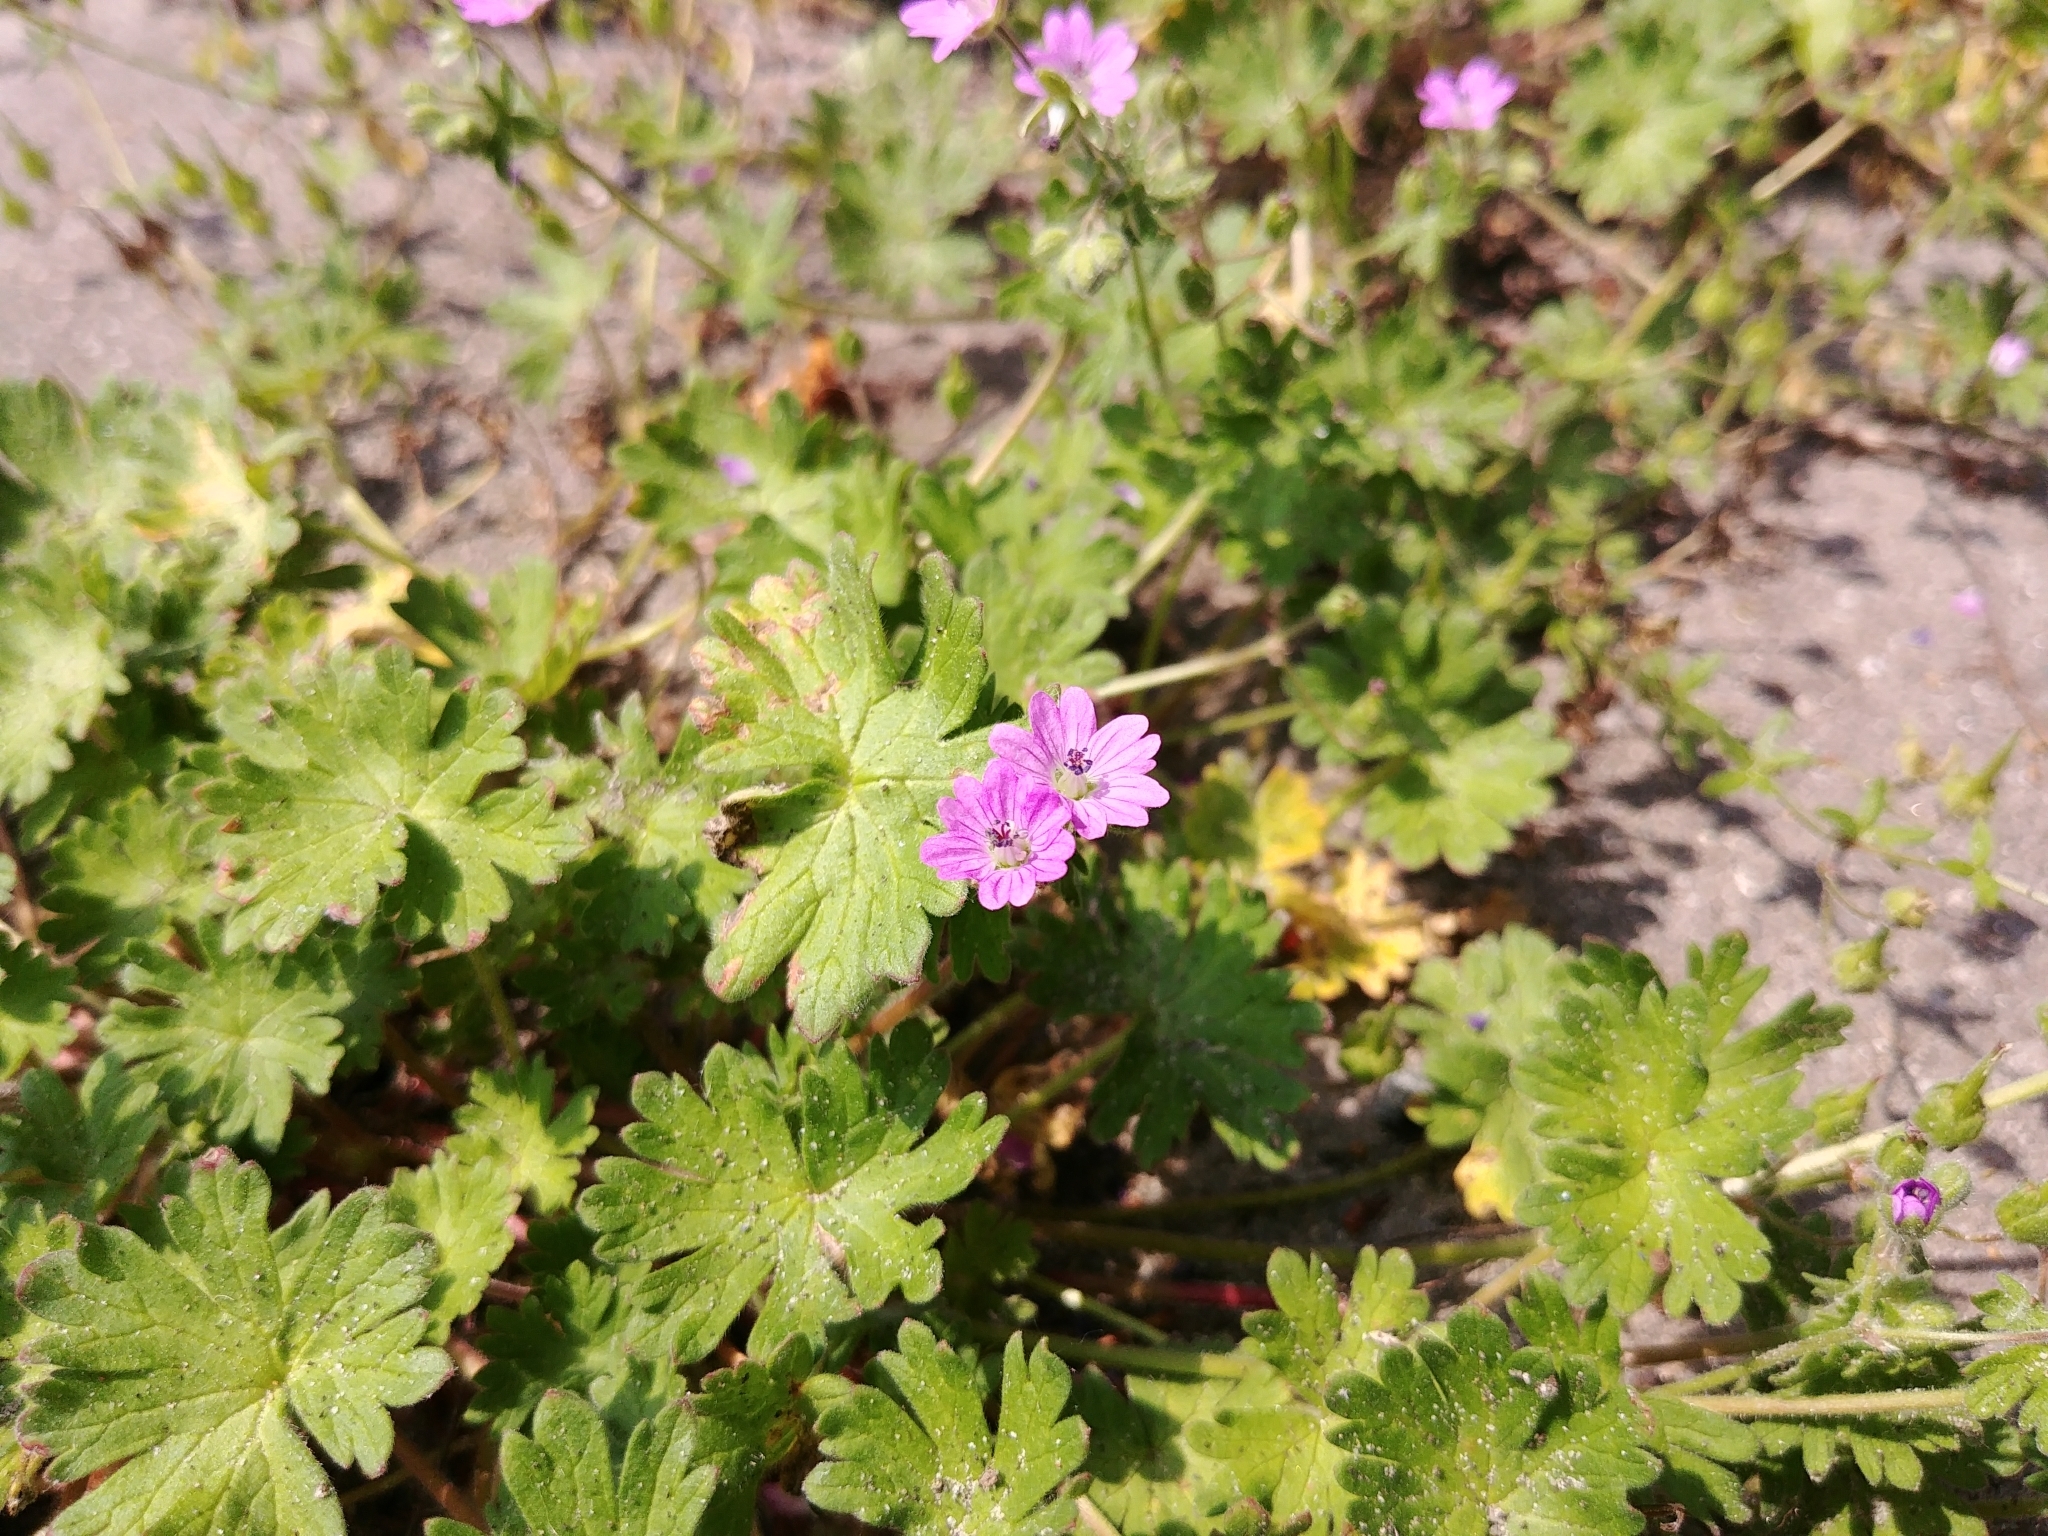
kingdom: Plantae
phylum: Tracheophyta
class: Magnoliopsida
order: Geraniales
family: Geraniaceae
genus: Geranium
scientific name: Geranium molle
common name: Dove's-foot crane's-bill
